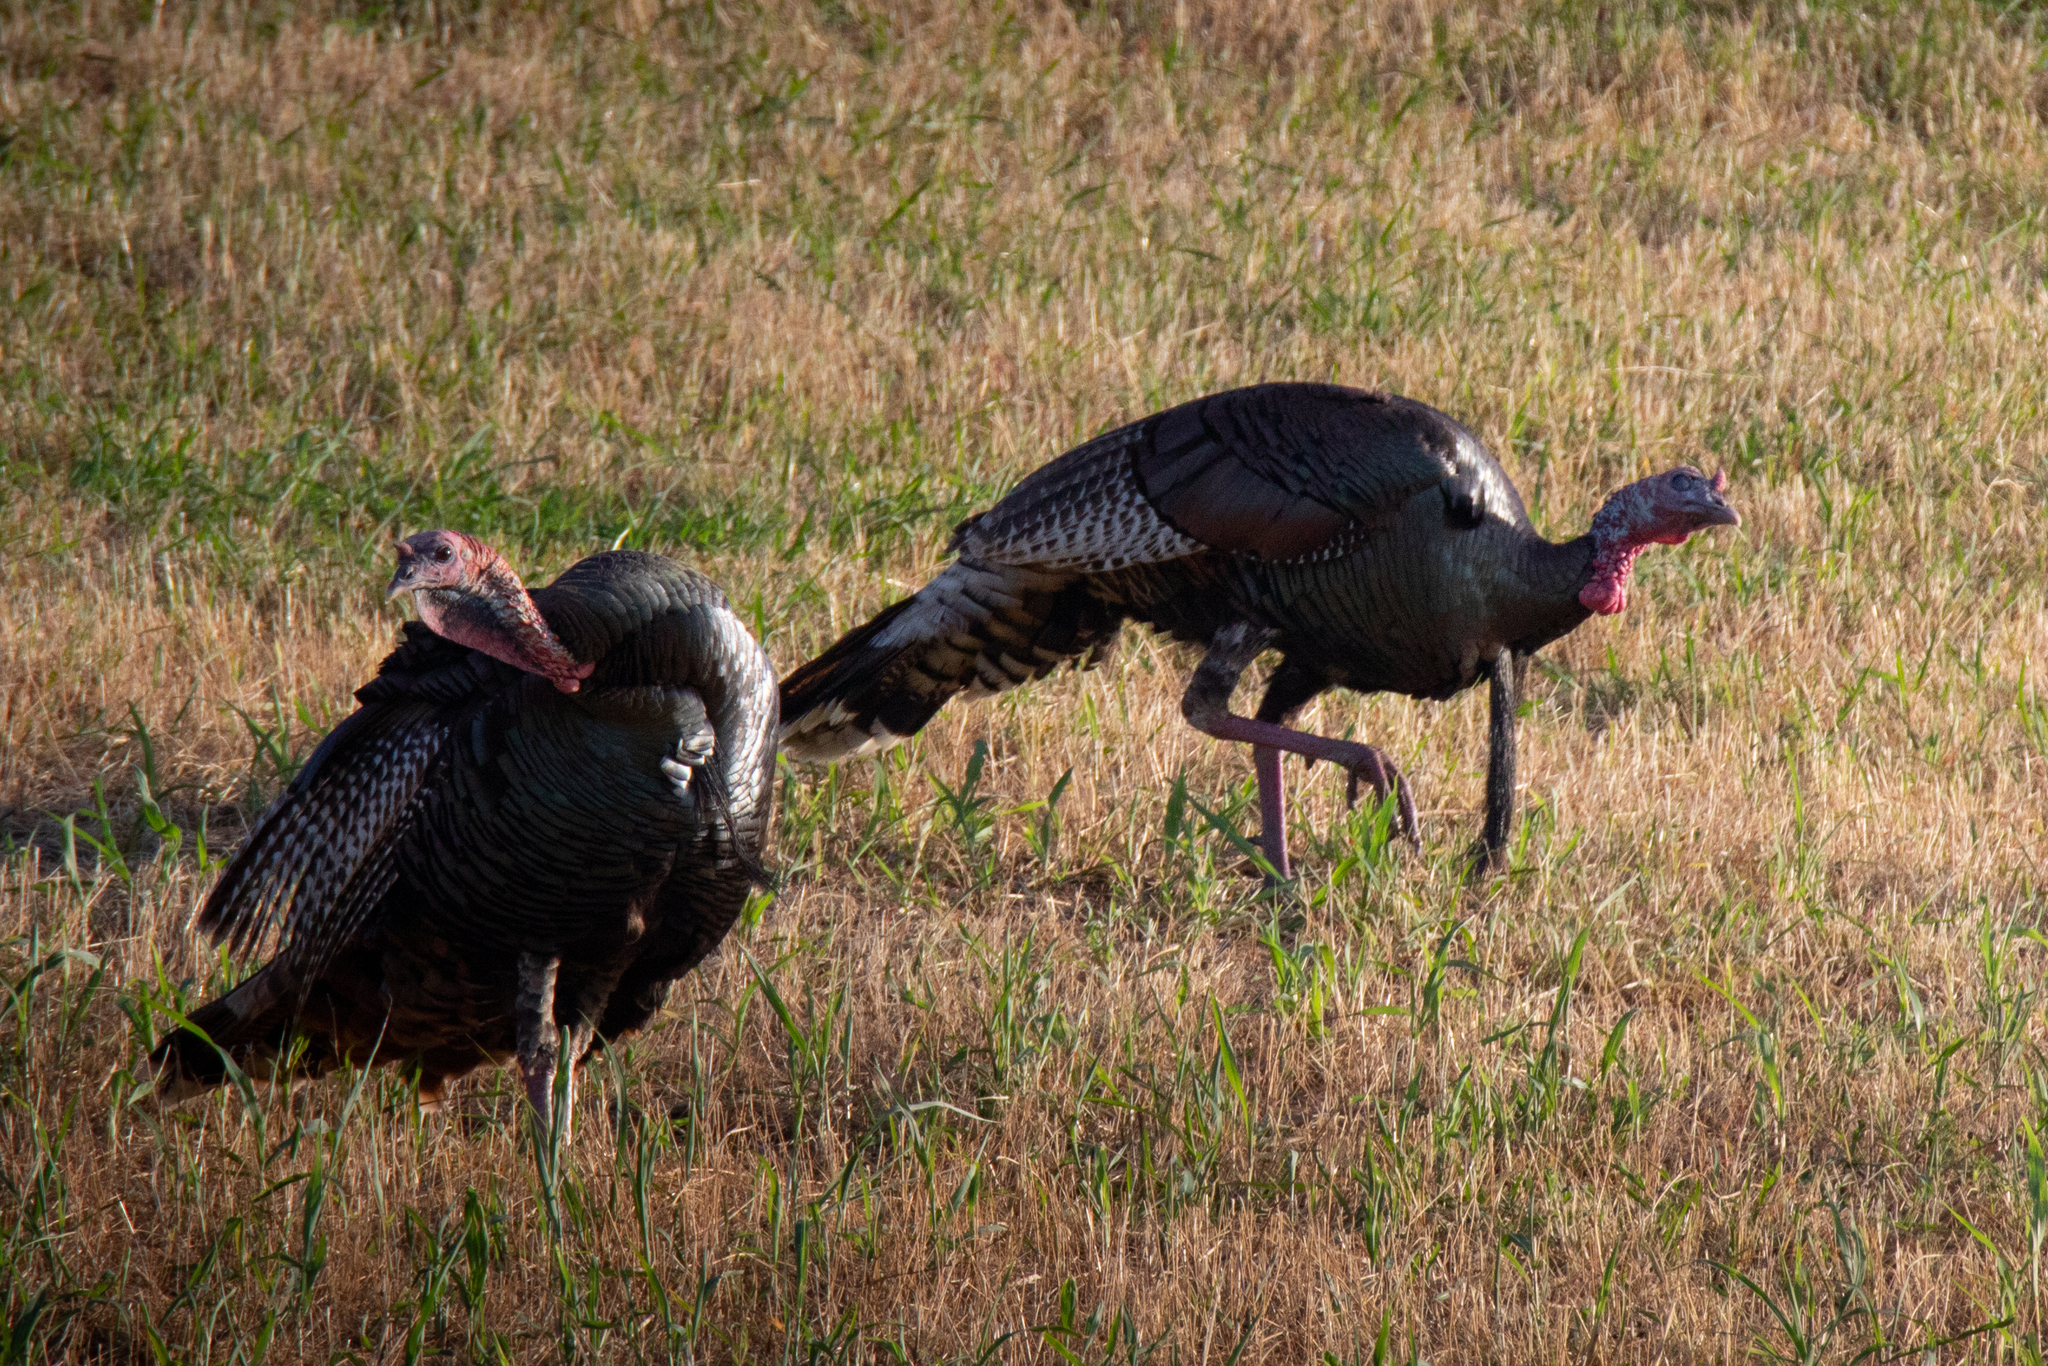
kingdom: Animalia
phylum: Chordata
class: Aves
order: Galliformes
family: Phasianidae
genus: Meleagris
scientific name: Meleagris gallopavo
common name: Wild turkey
